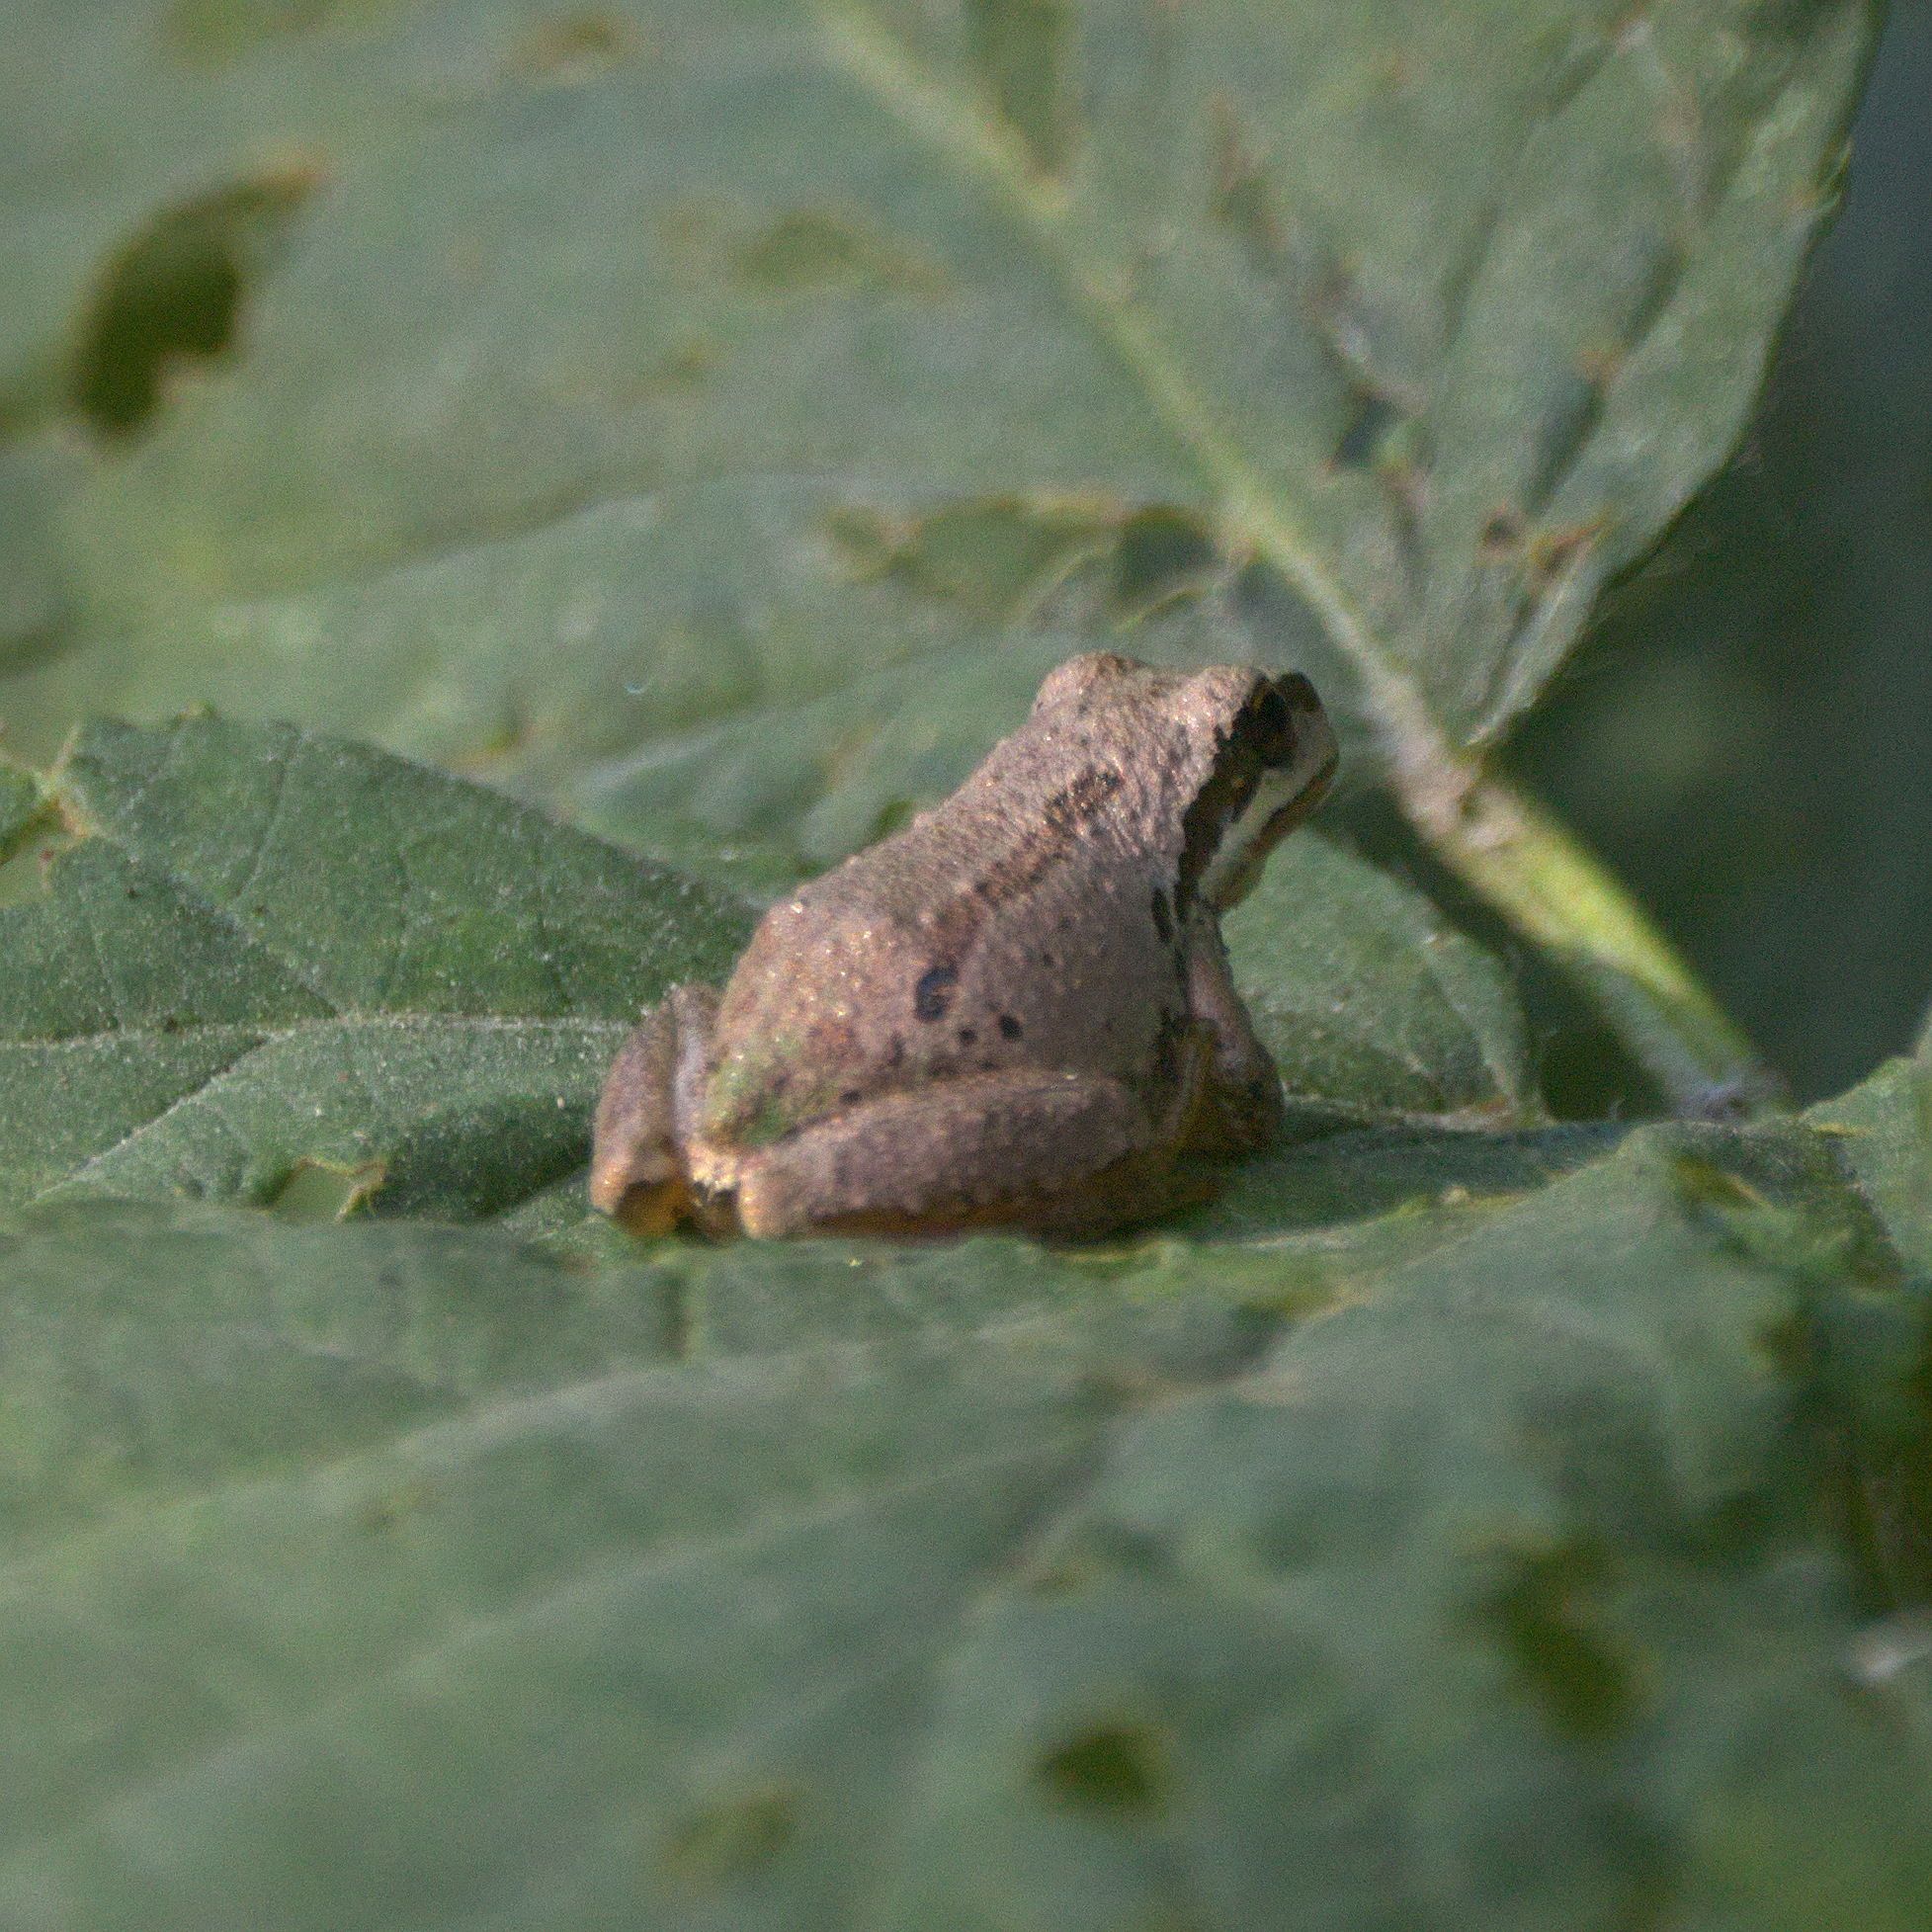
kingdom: Animalia
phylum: Chordata
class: Amphibia
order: Anura
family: Hylidae
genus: Pseudacris
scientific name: Pseudacris regilla
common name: Pacific chorus frog
